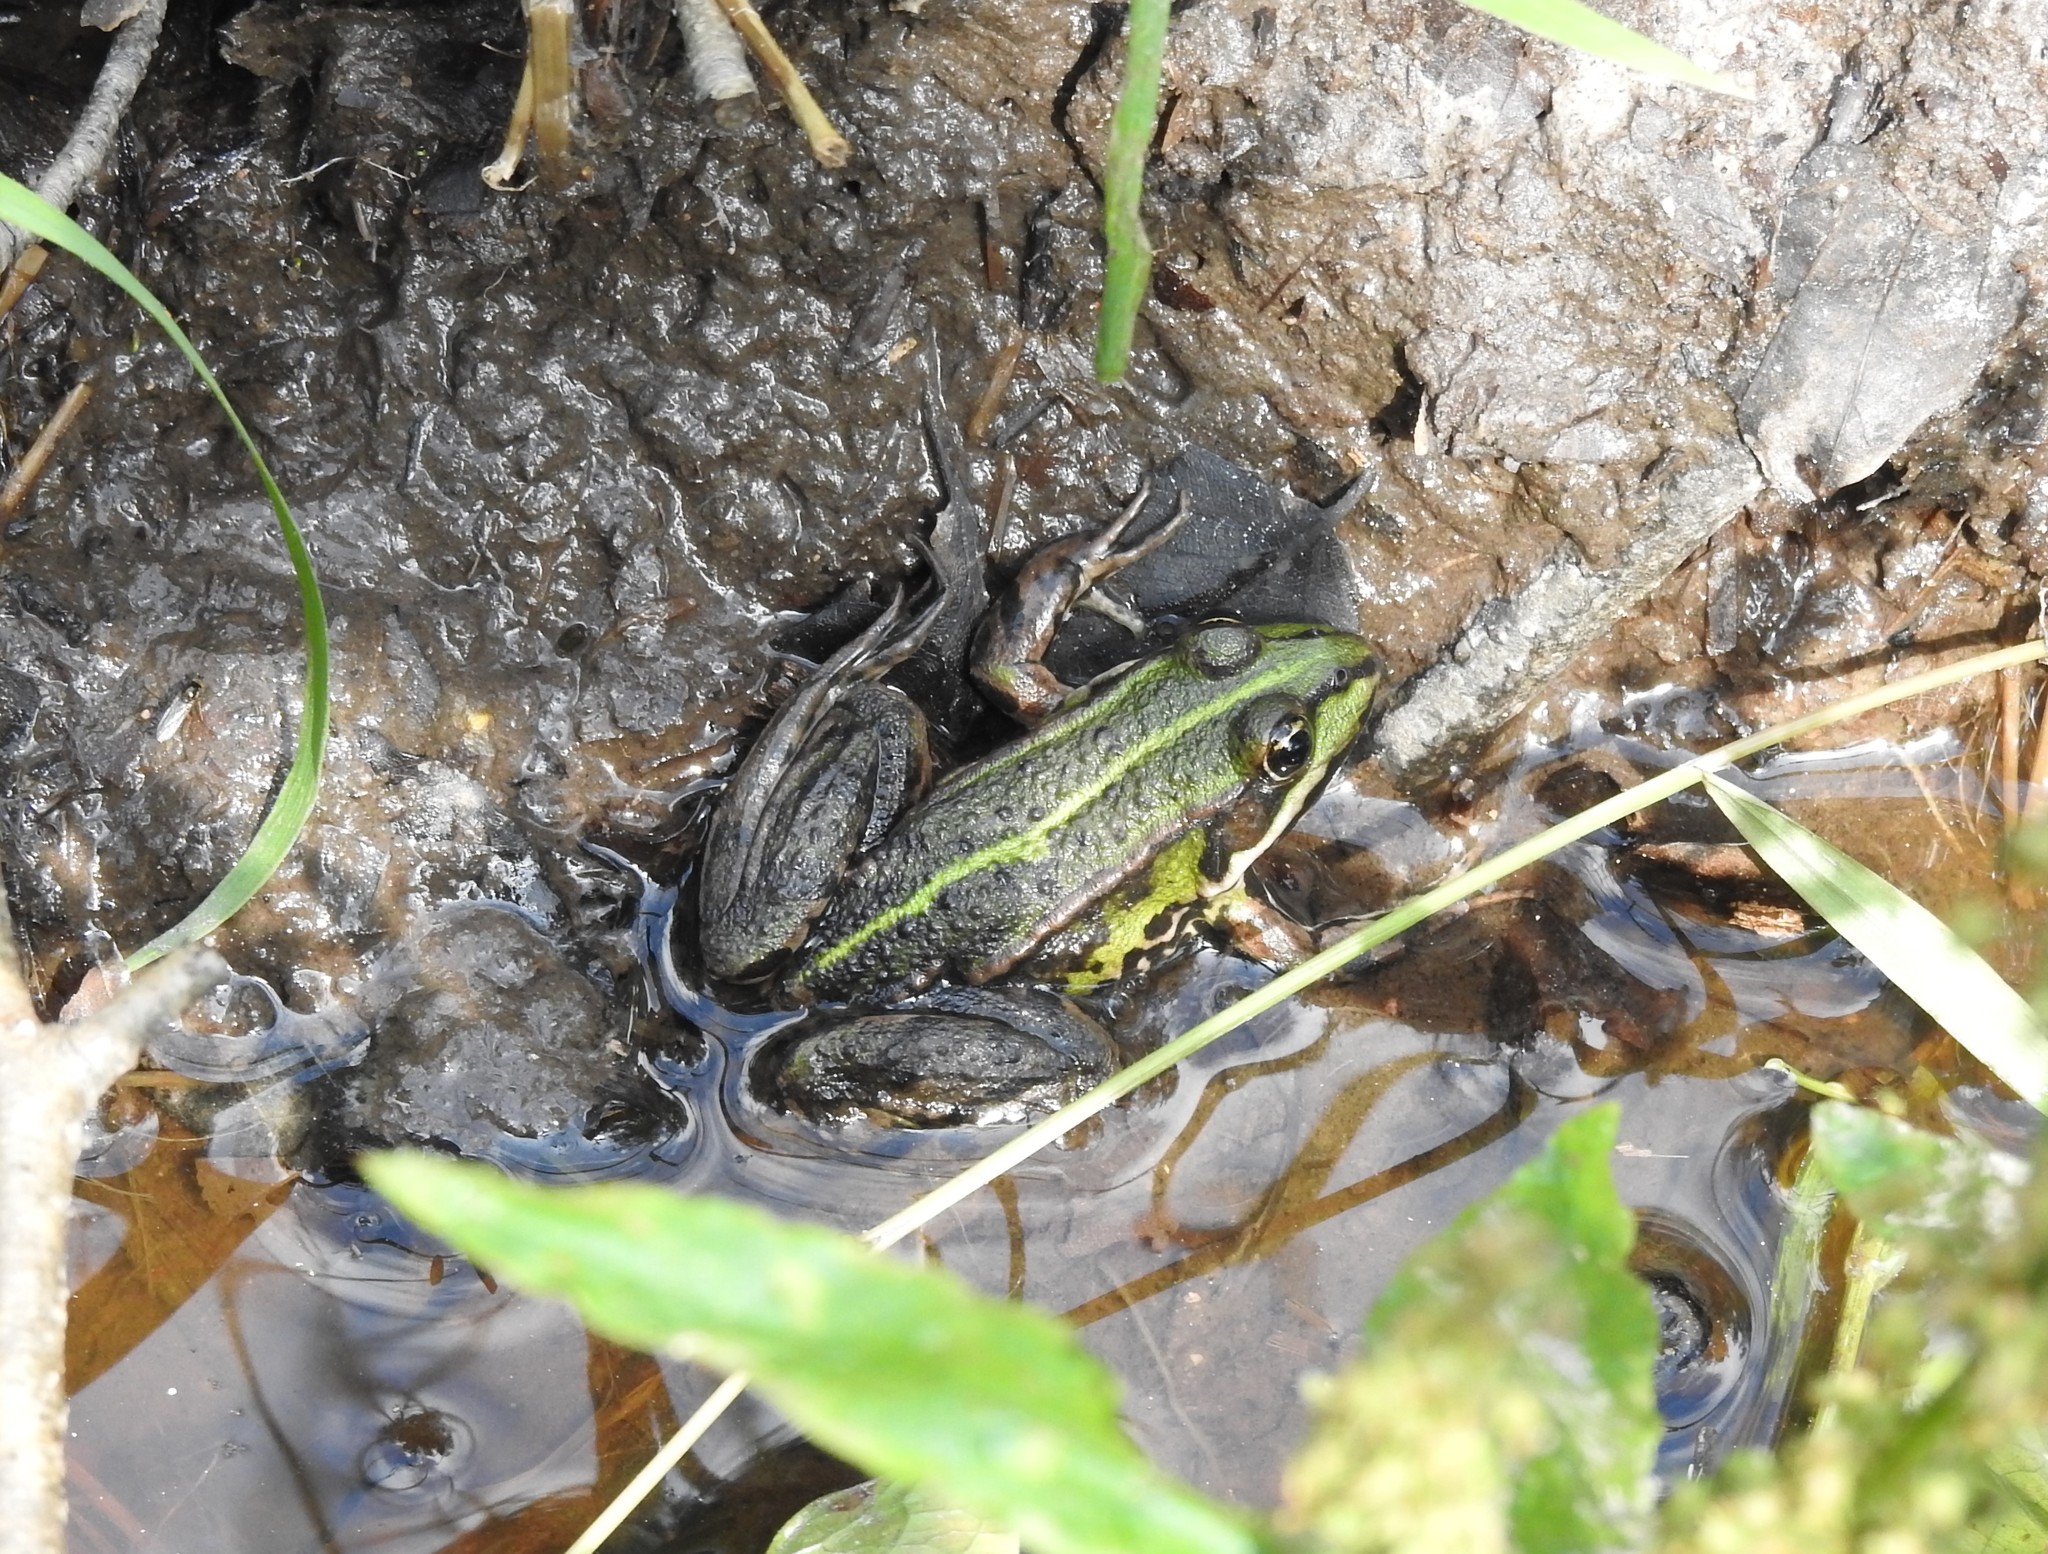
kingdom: Animalia
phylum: Chordata
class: Amphibia
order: Anura
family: Ranidae
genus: Pelophylax
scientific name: Pelophylax lessonae
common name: Pool frog
